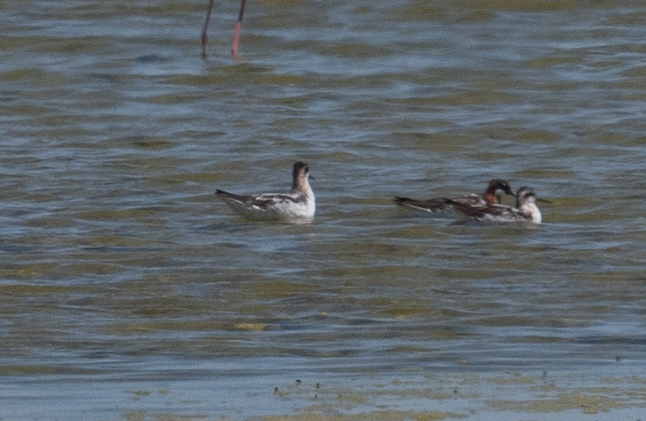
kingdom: Animalia
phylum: Chordata
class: Aves
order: Charadriiformes
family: Scolopacidae
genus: Phalaropus
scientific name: Phalaropus lobatus
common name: Red-necked phalarope
